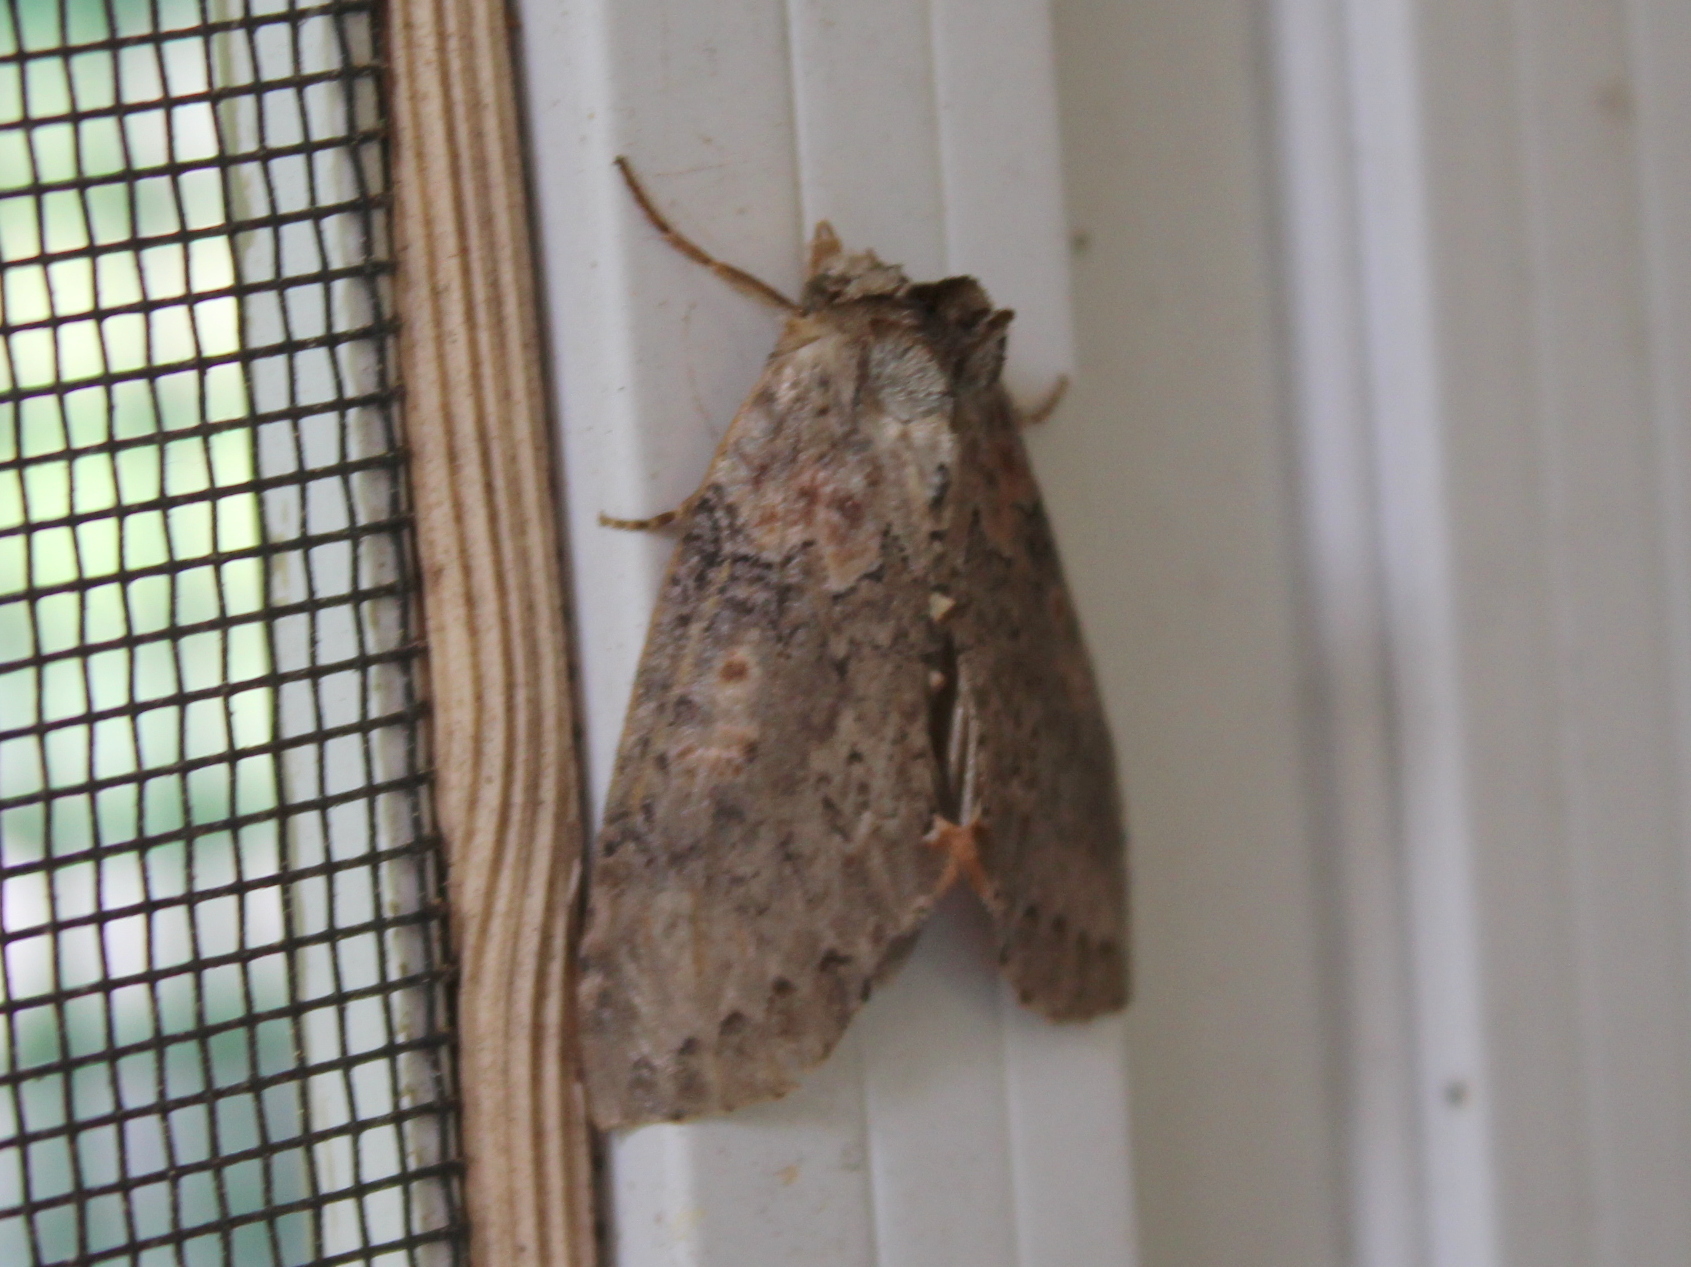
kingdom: Animalia
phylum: Arthropoda
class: Insecta
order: Lepidoptera
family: Drepanidae
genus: Pseudothyatira
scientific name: Pseudothyatira cymatophoroides
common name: Tufted thyatirid moth
